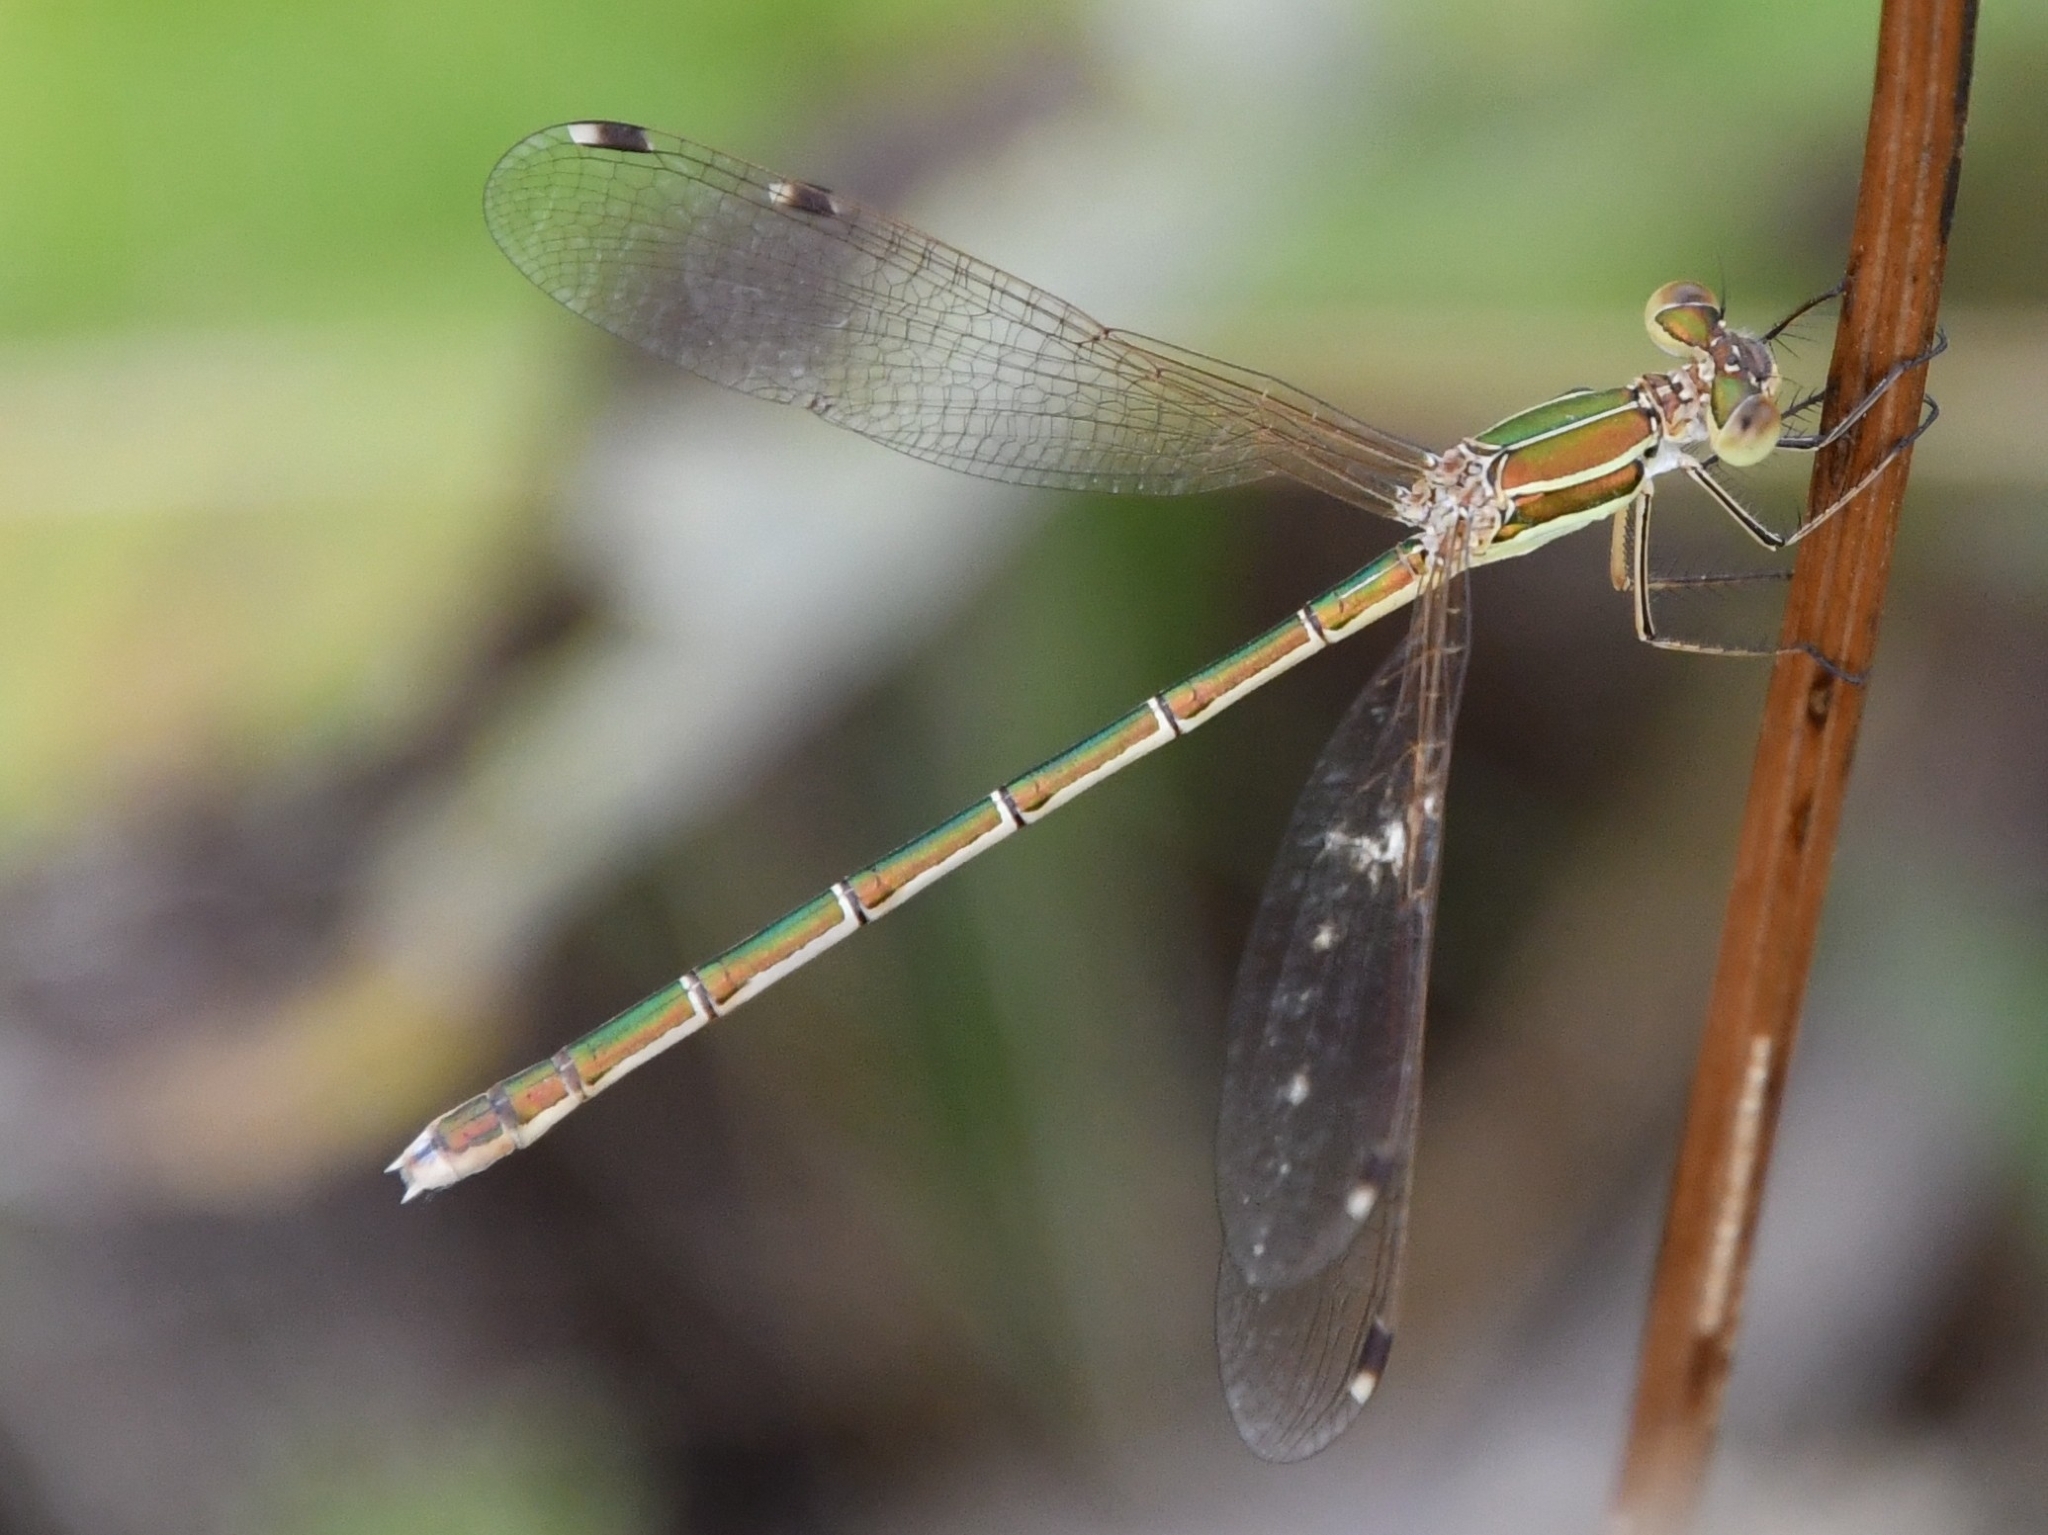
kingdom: Animalia
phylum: Arthropoda
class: Insecta
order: Odonata
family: Lestidae
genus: Lestes
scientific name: Lestes barbarus
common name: Migrant spreadwing
